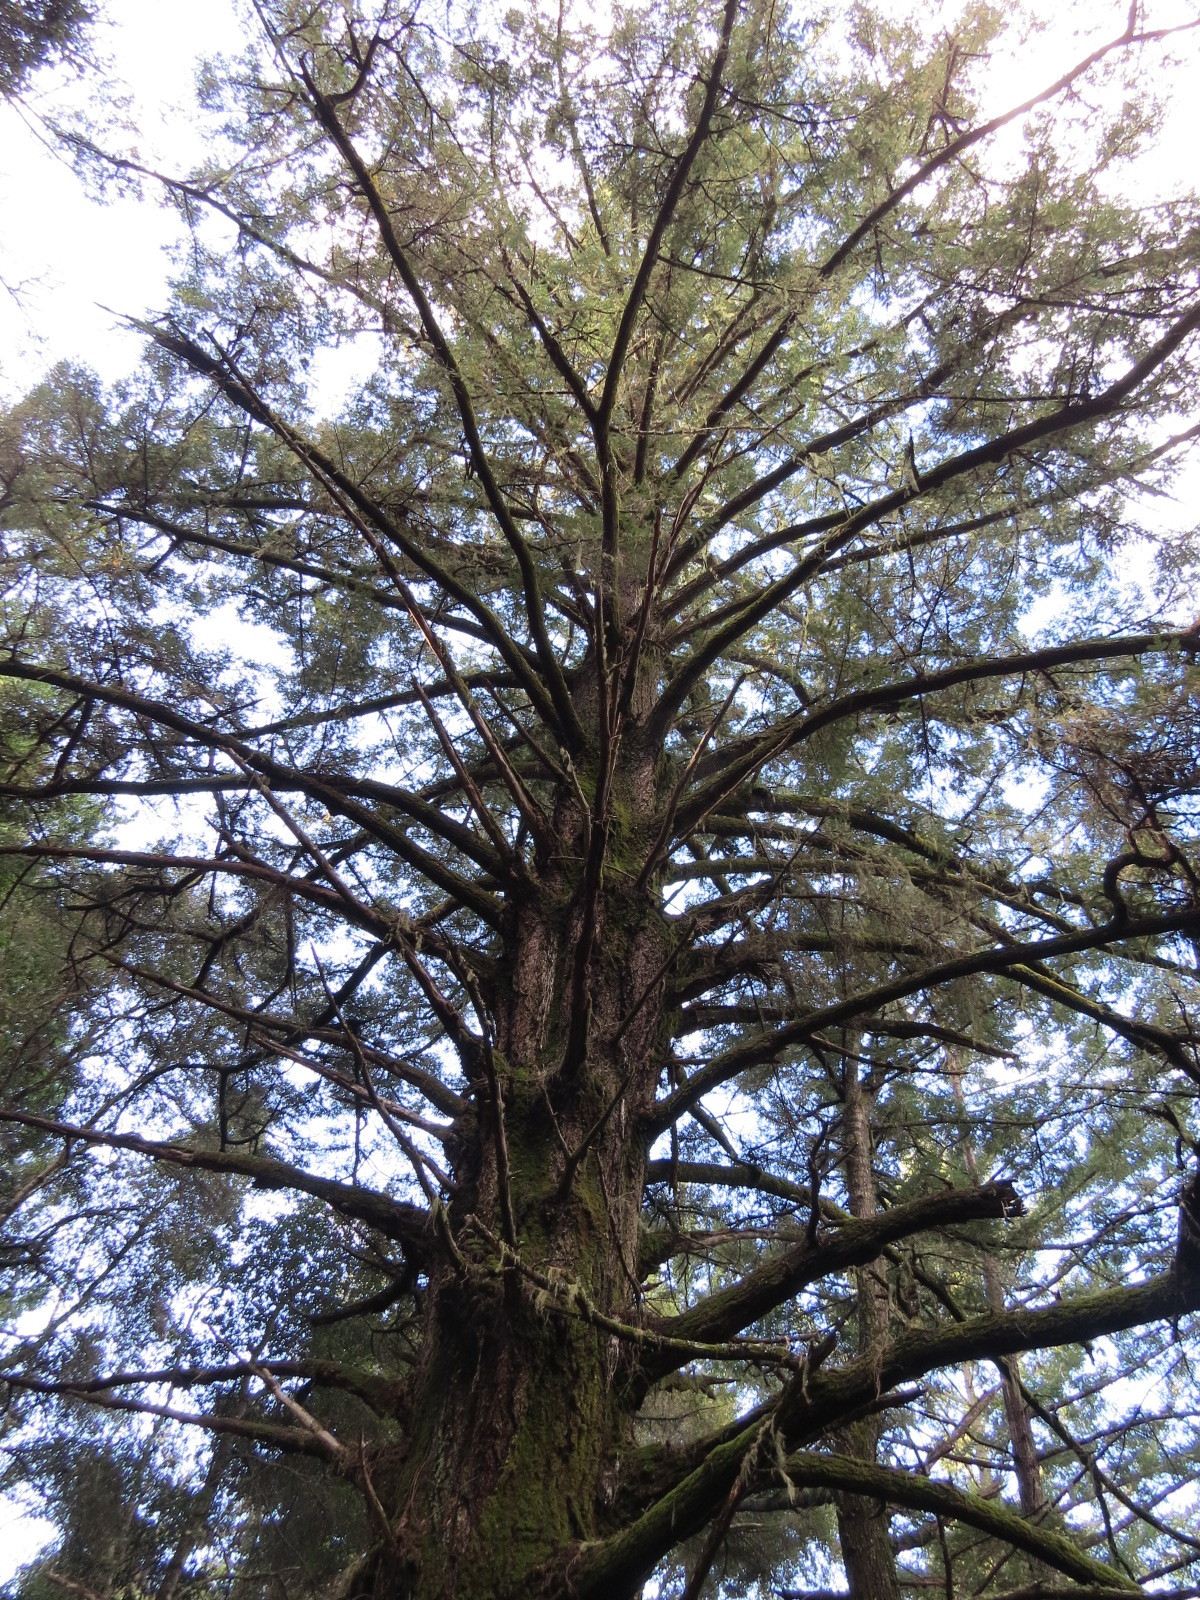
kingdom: Plantae
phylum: Tracheophyta
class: Pinopsida
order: Pinales
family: Pinaceae
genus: Pseudotsuga
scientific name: Pseudotsuga menziesii
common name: Douglas fir
